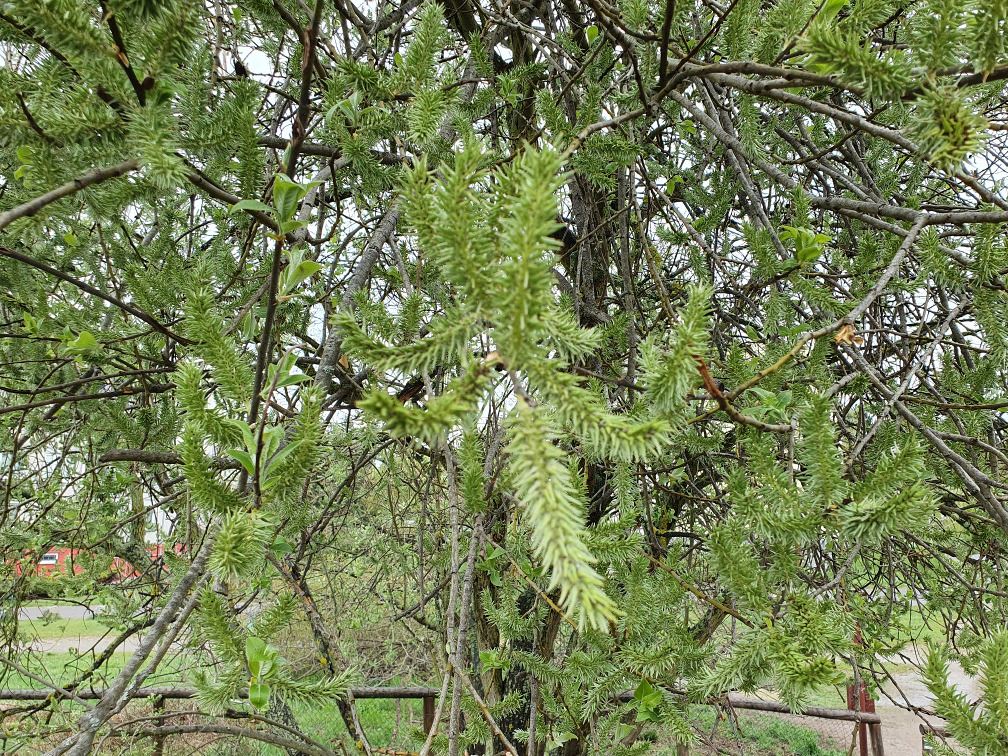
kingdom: Plantae
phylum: Tracheophyta
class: Magnoliopsida
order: Malpighiales
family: Salicaceae
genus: Salix
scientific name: Salix caprea
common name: Goat willow
